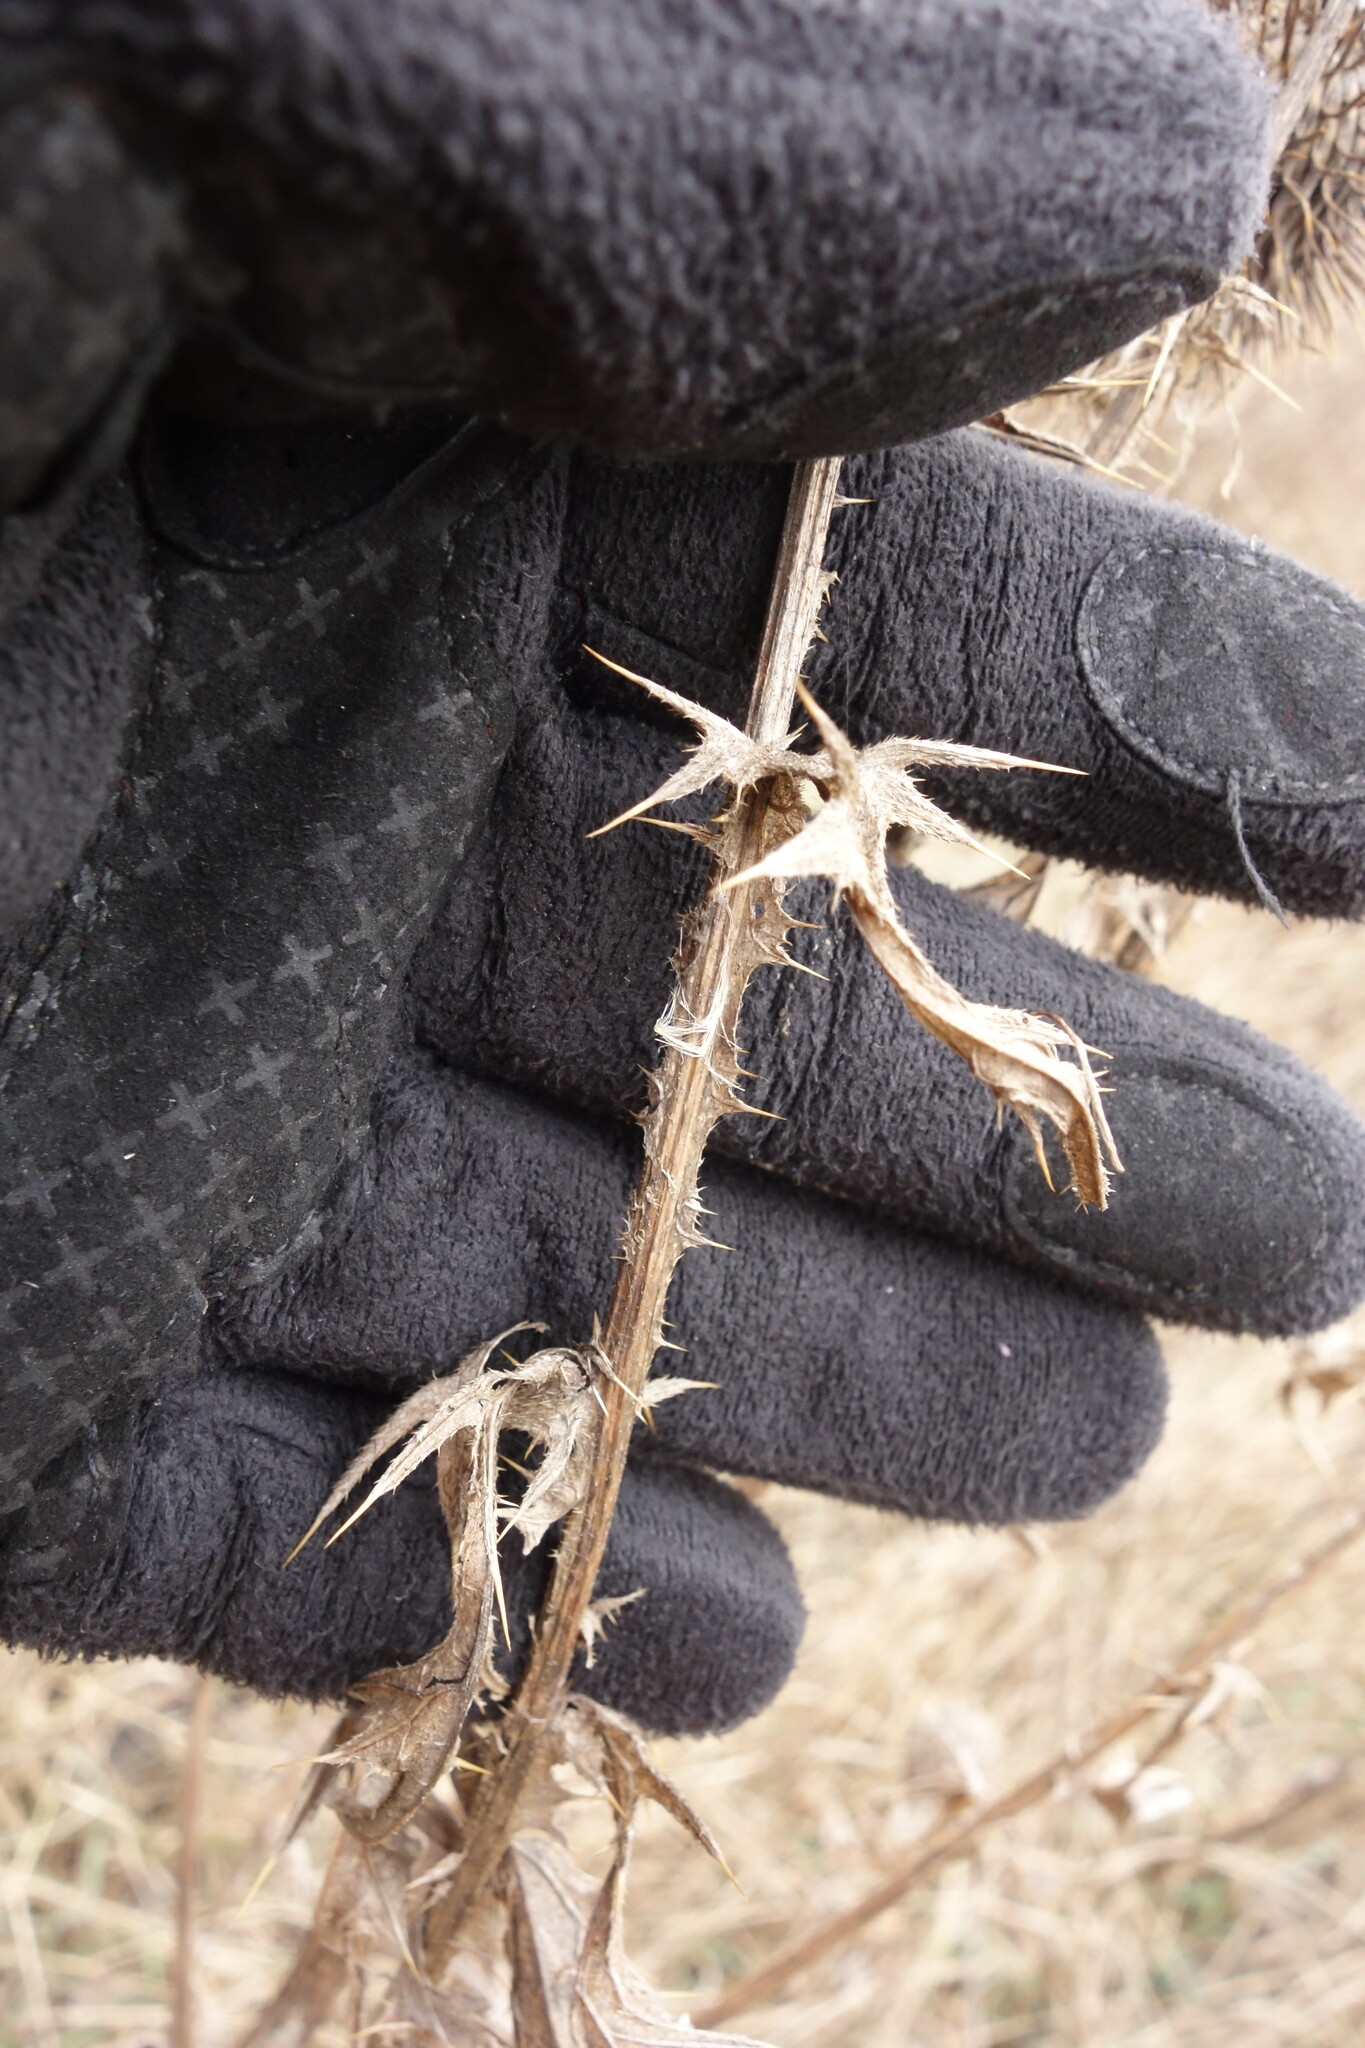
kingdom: Plantae
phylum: Tracheophyta
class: Magnoliopsida
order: Asterales
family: Asteraceae
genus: Cirsium
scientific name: Cirsium vulgare
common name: Bull thistle
